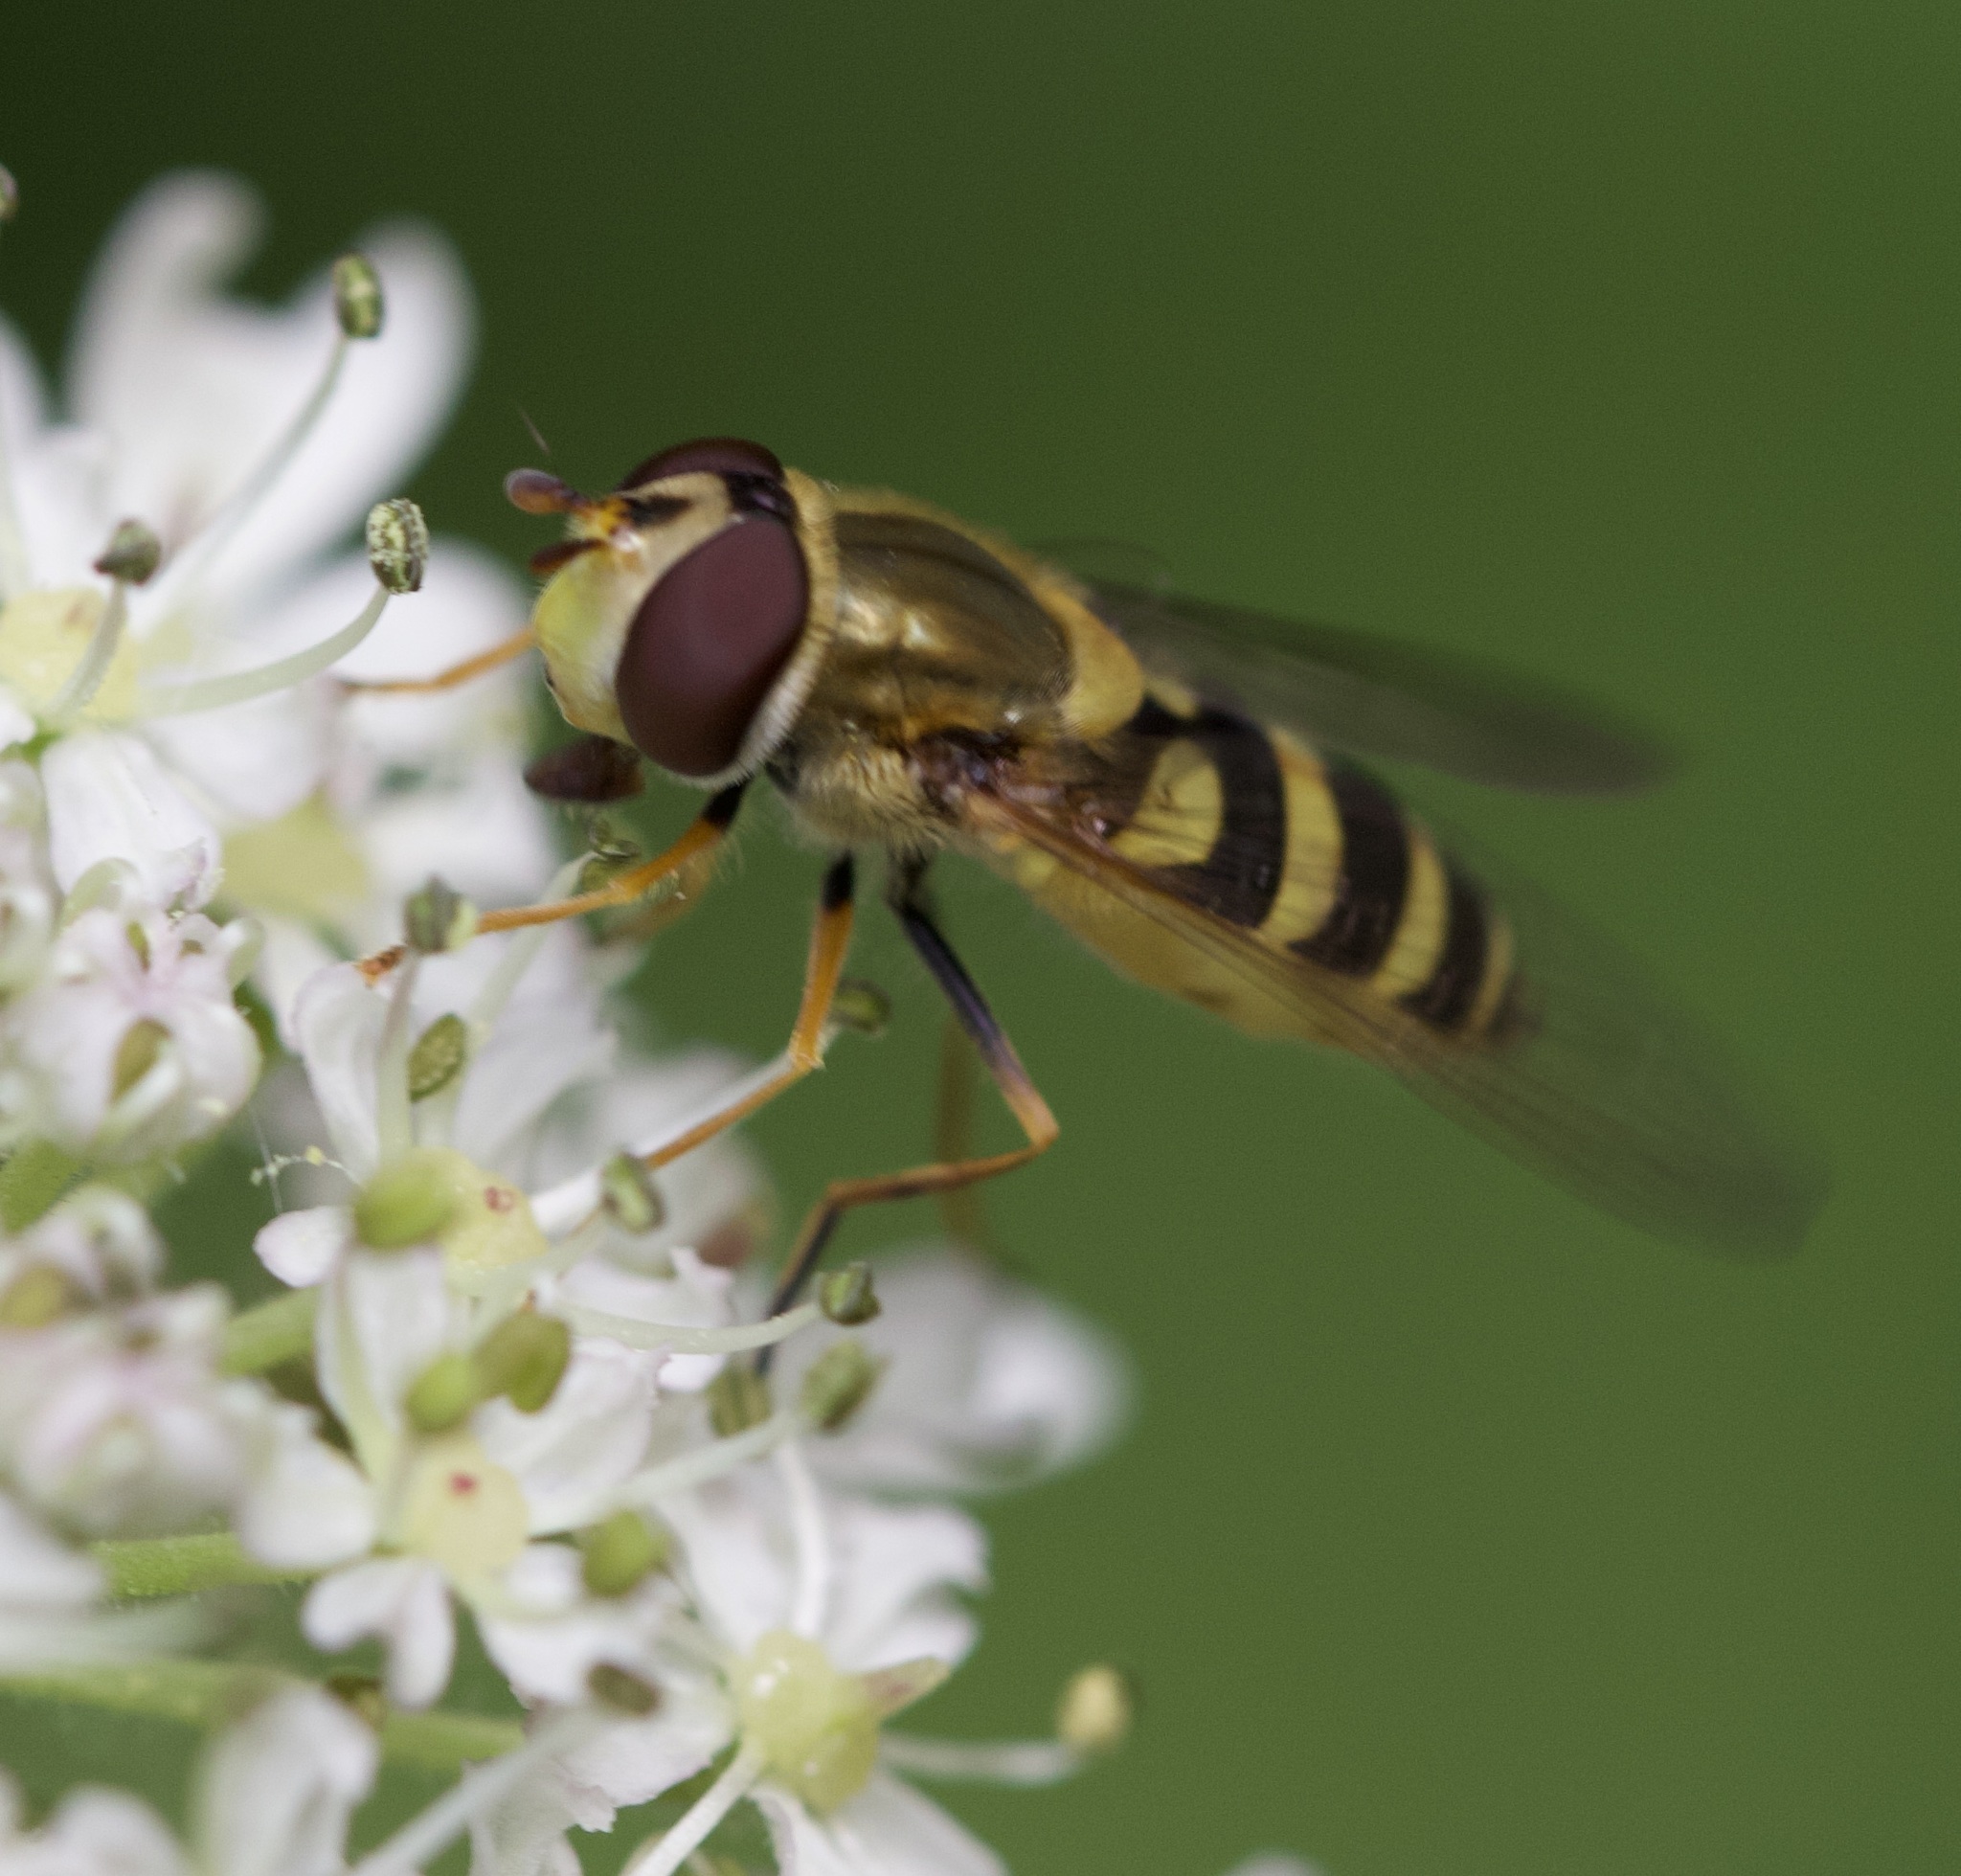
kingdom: Animalia
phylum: Arthropoda
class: Insecta
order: Diptera
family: Syrphidae
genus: Syrphus
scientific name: Syrphus
